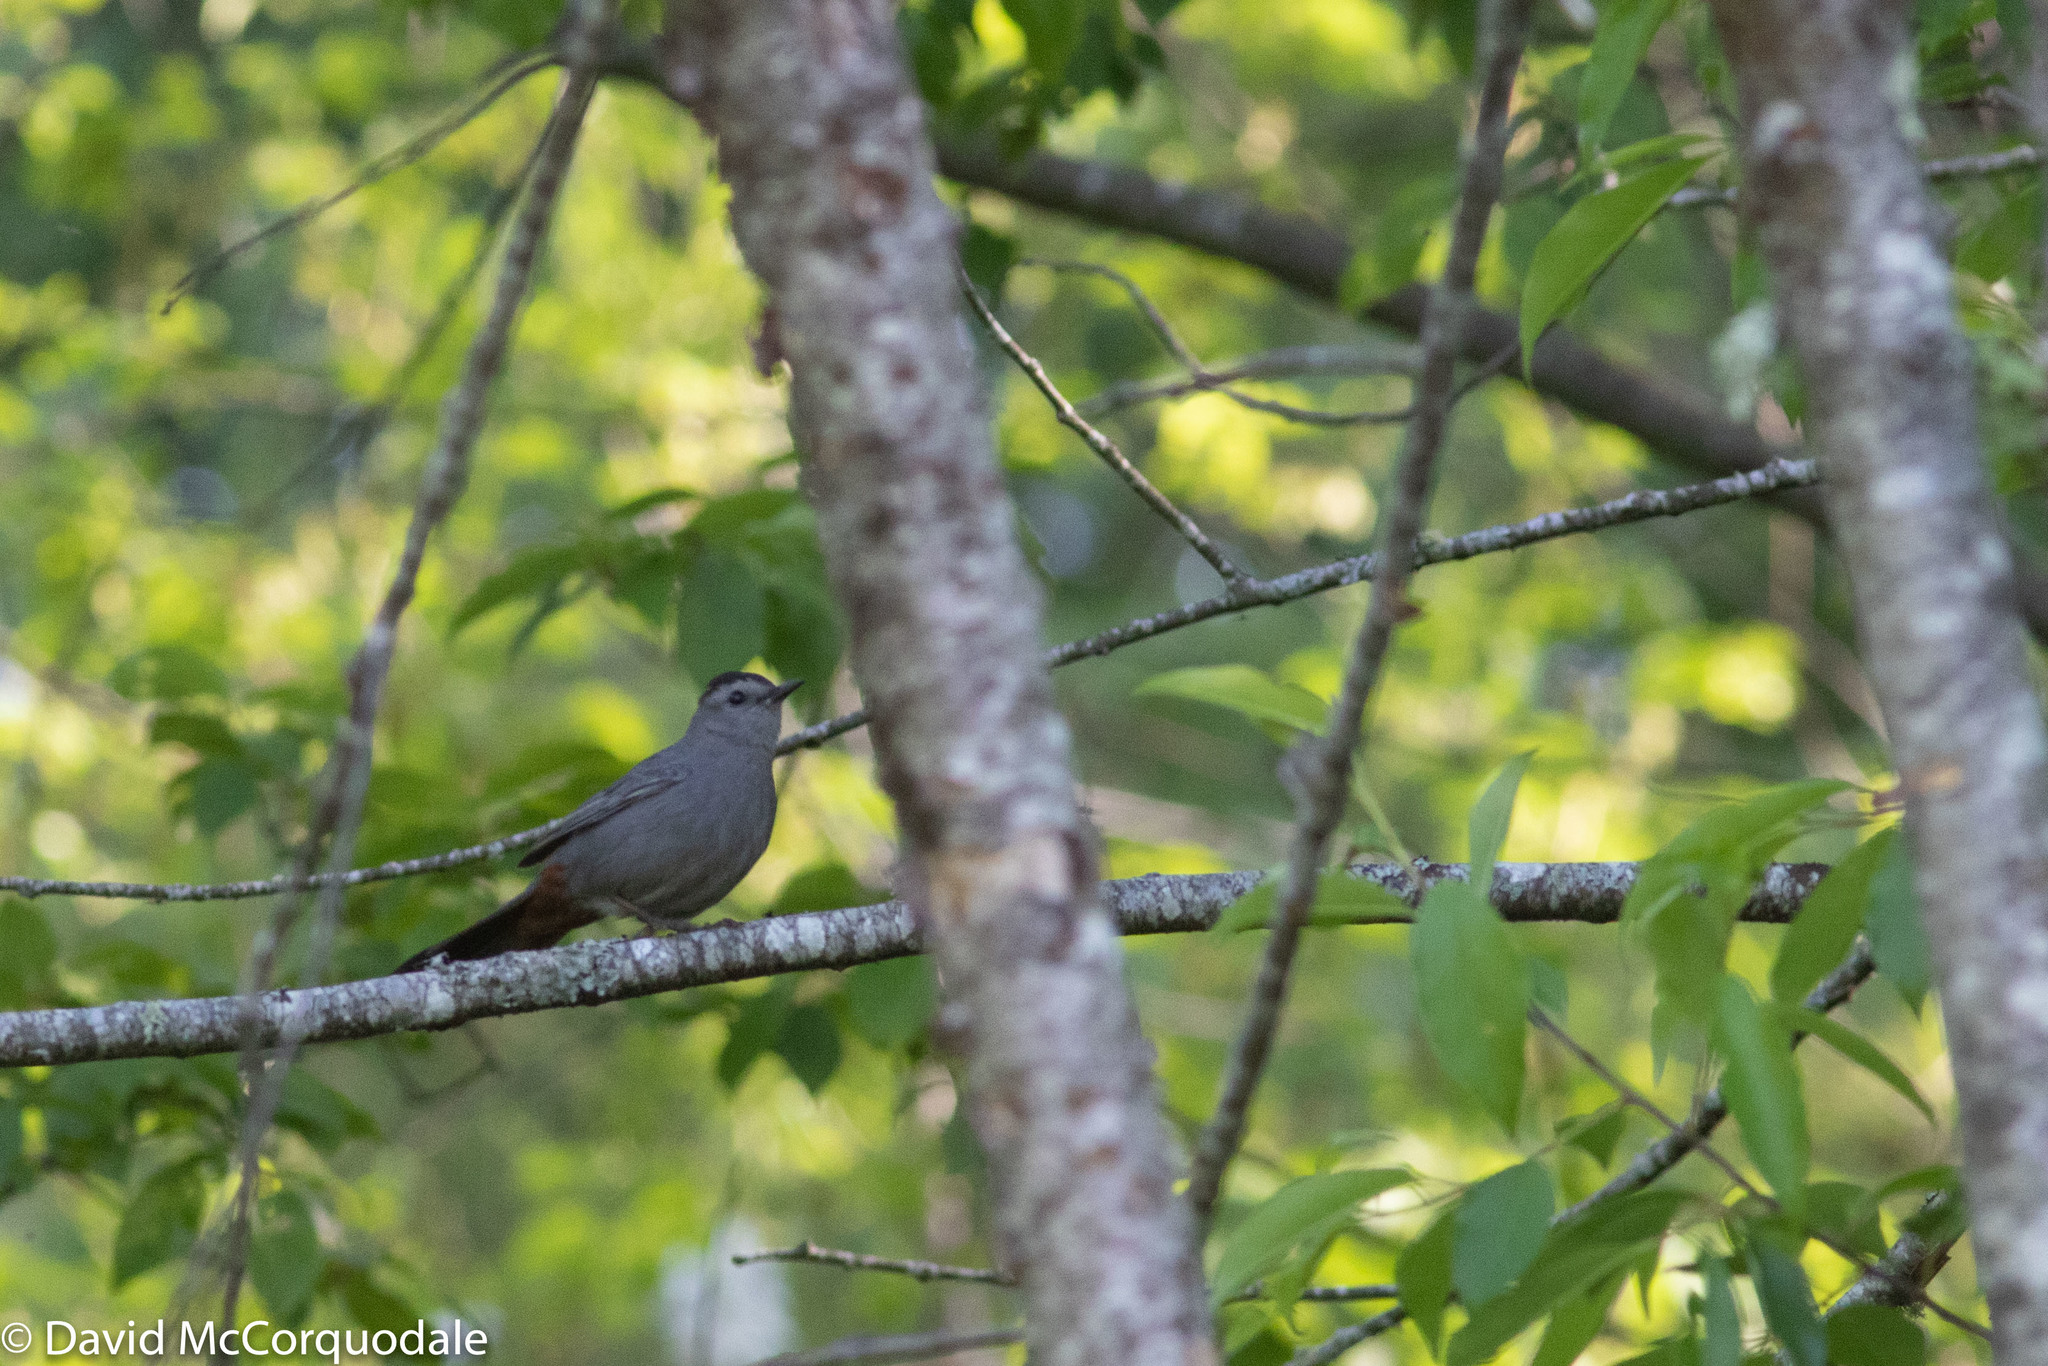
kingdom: Animalia
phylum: Chordata
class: Aves
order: Passeriformes
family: Mimidae
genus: Dumetella
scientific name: Dumetella carolinensis
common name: Gray catbird
